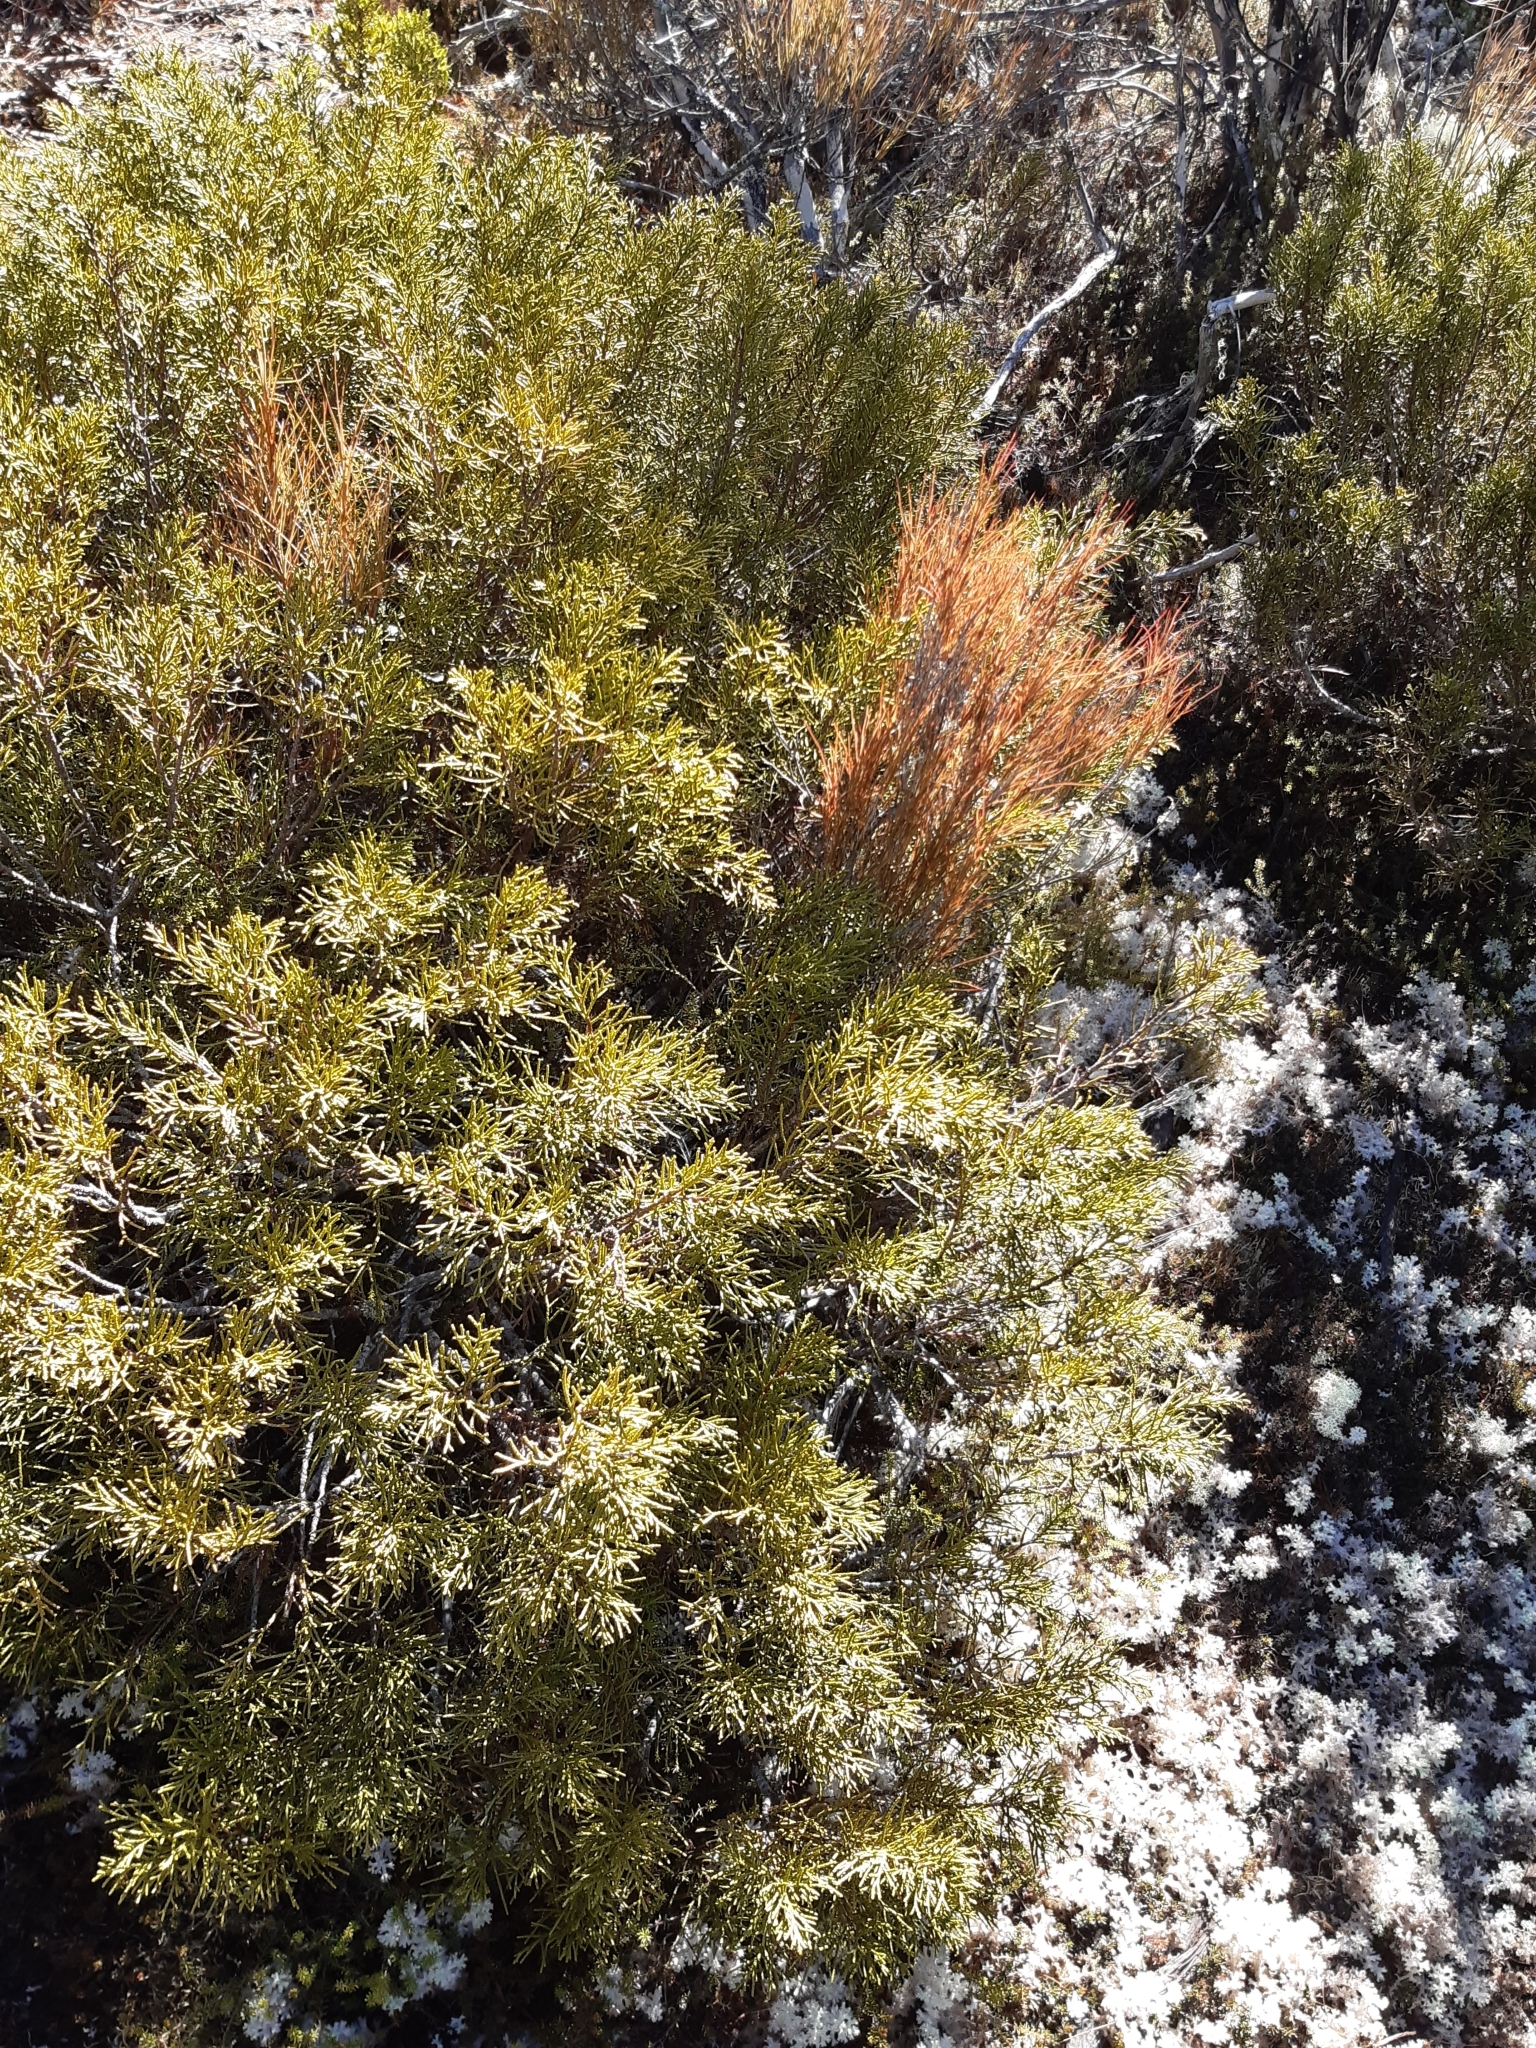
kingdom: Plantae
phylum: Tracheophyta
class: Pinopsida
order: Pinales
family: Podocarpaceae
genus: Halocarpus
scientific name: Halocarpus bidwillii
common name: Bog pine
